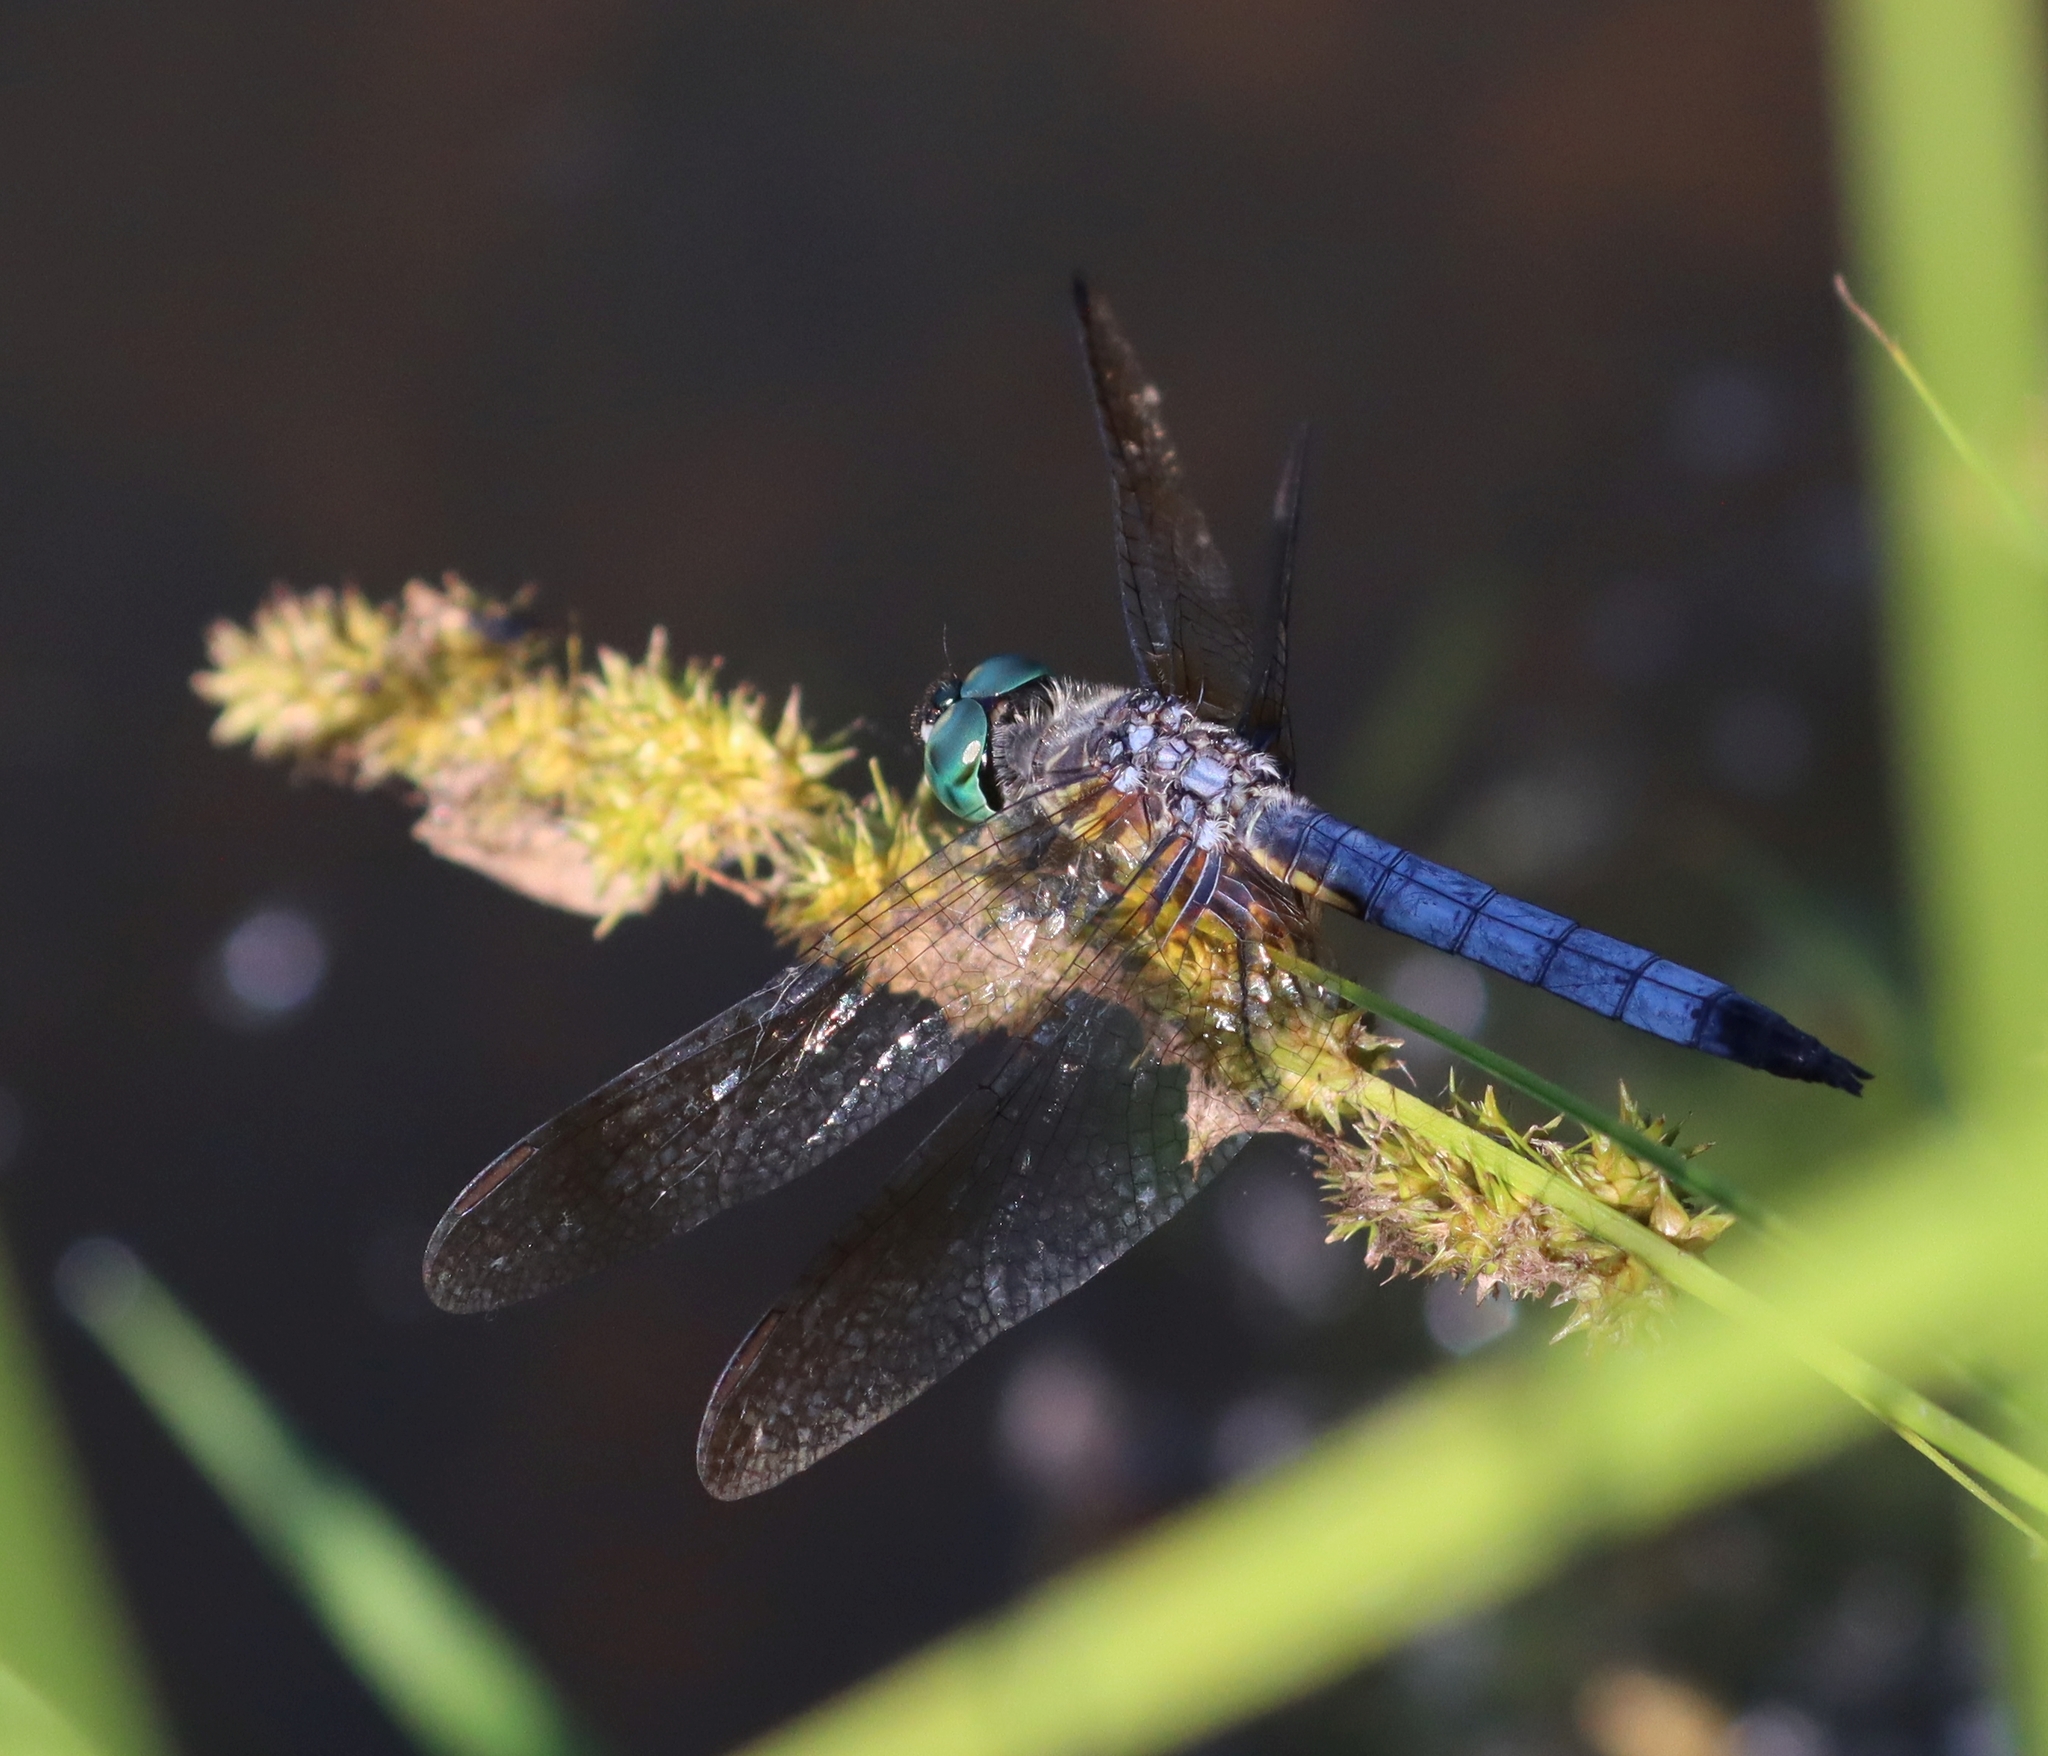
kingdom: Animalia
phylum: Arthropoda
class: Insecta
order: Odonata
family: Libellulidae
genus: Pachydiplax
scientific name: Pachydiplax longipennis
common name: Blue dasher
